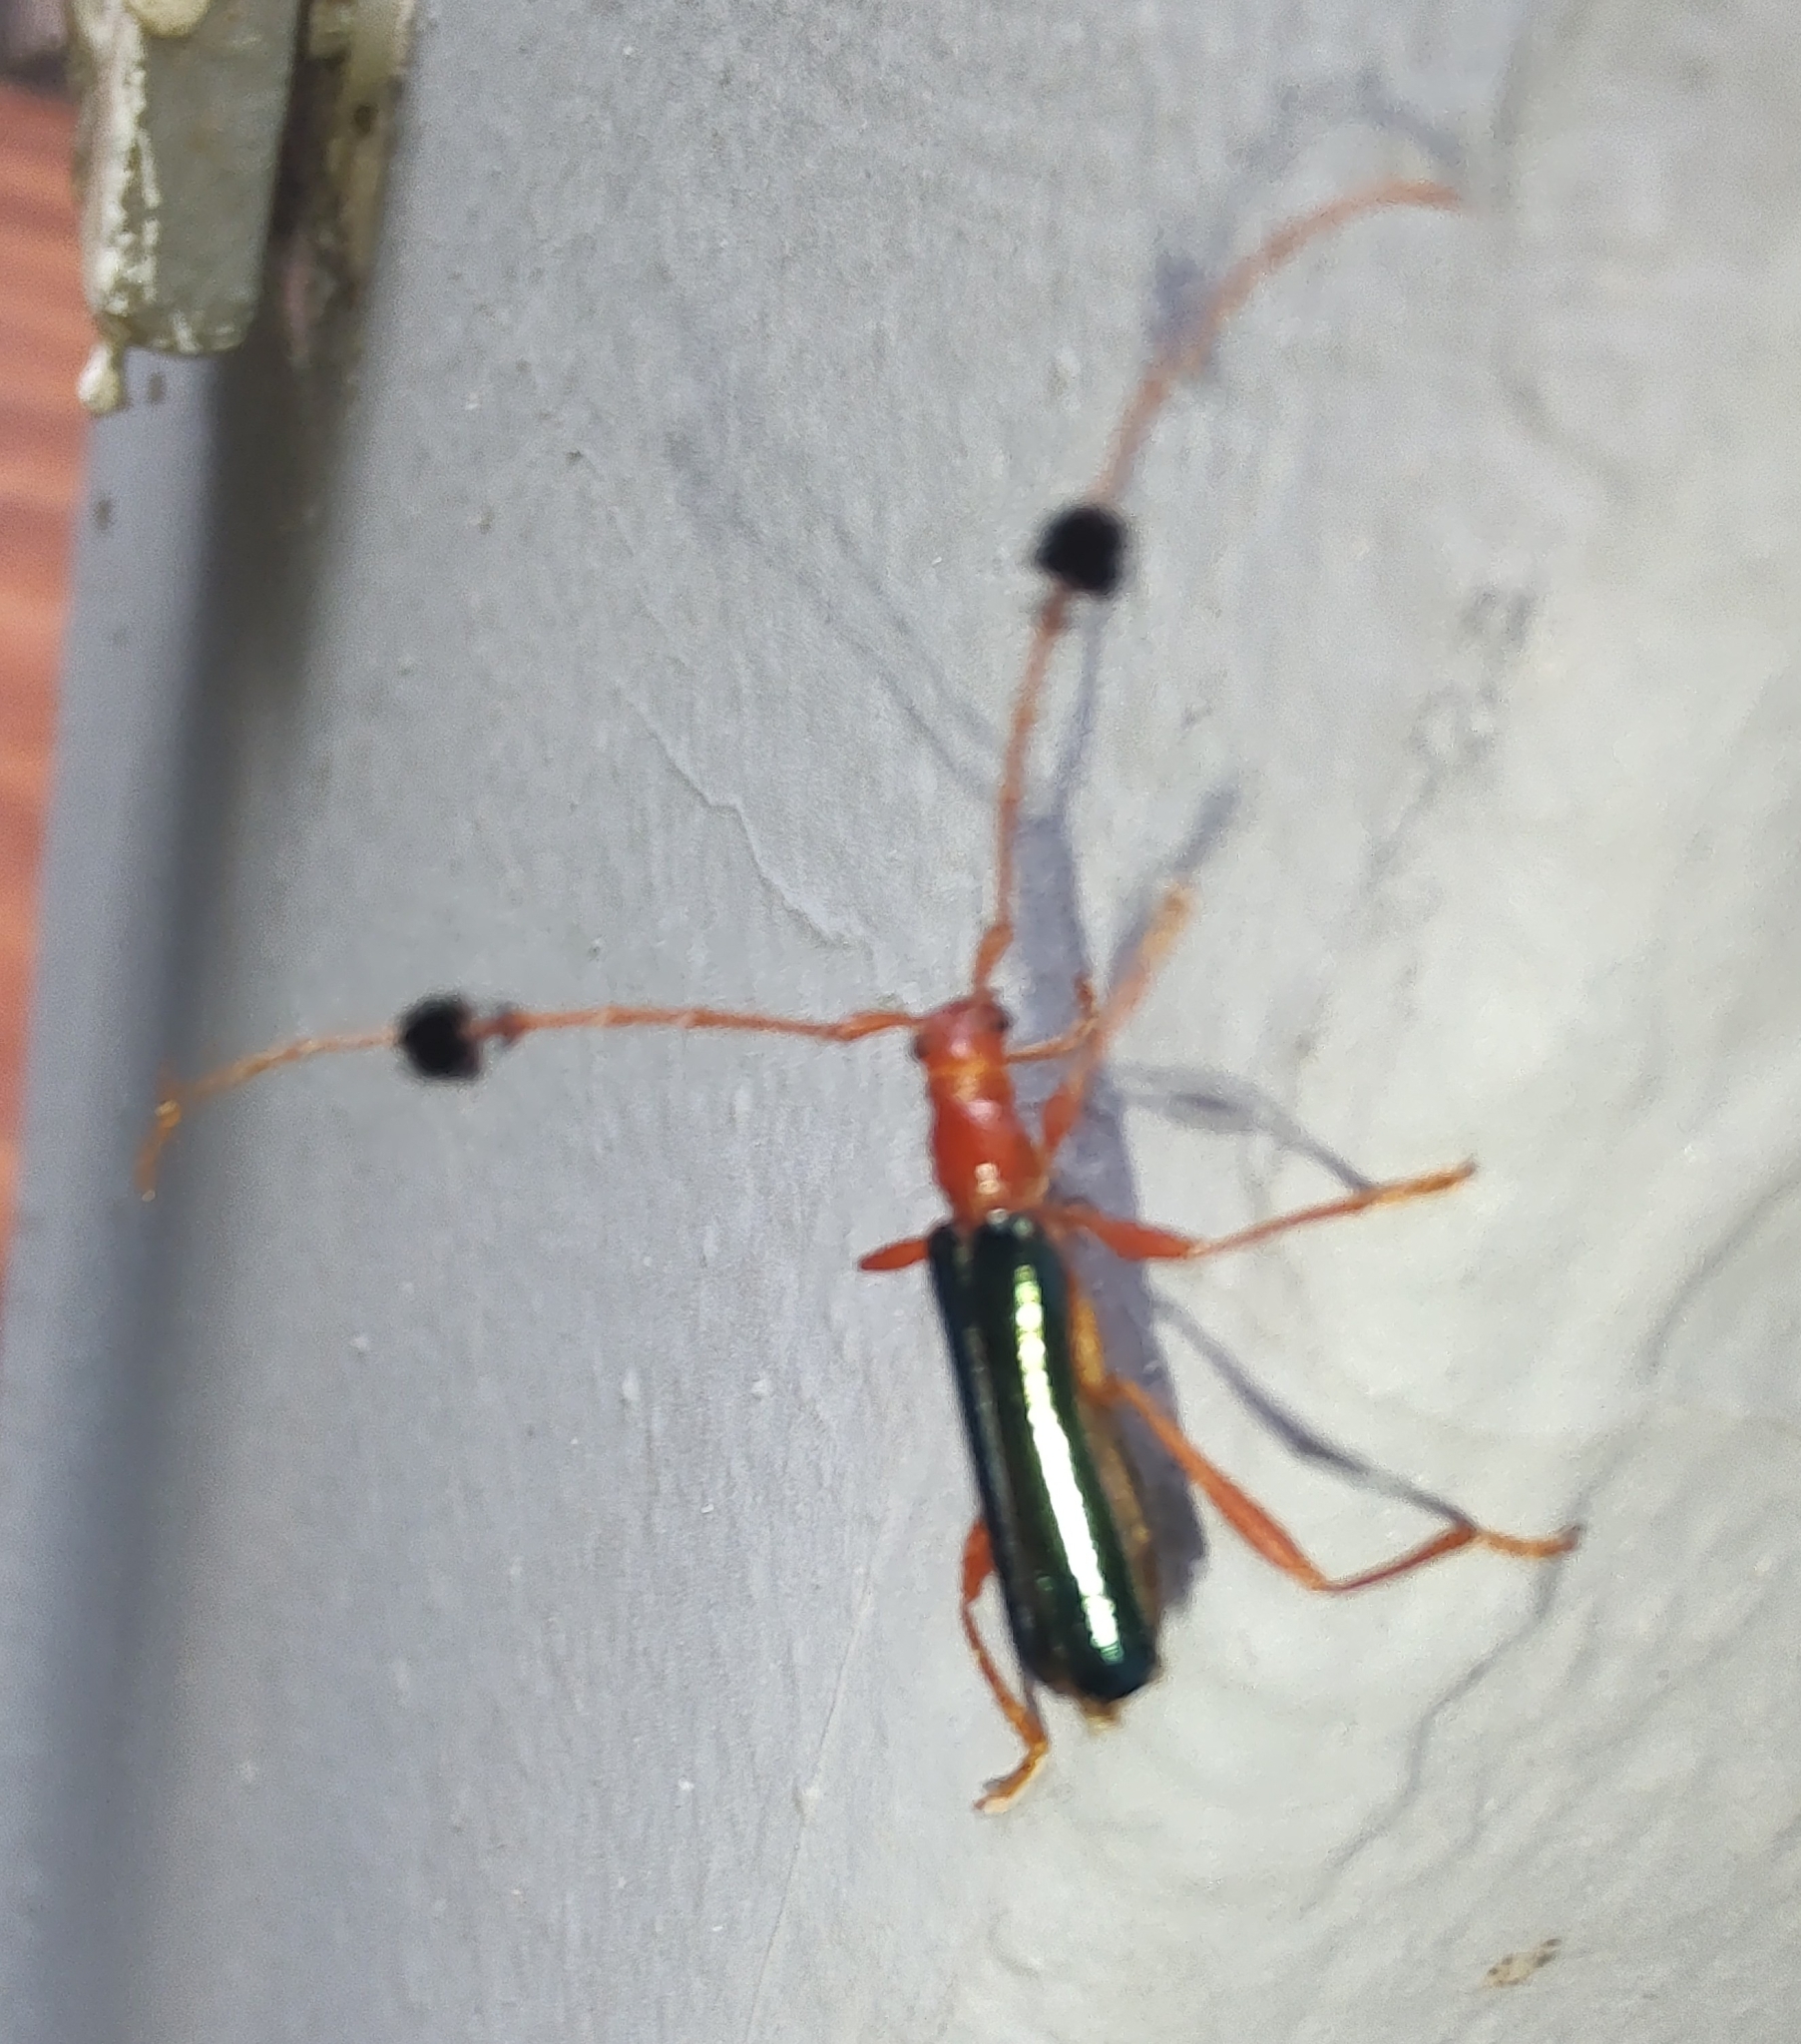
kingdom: Animalia
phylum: Arthropoda
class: Insecta
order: Coleoptera
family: Cerambycidae
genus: Paromoeocerus
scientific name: Paromoeocerus barbicornis
